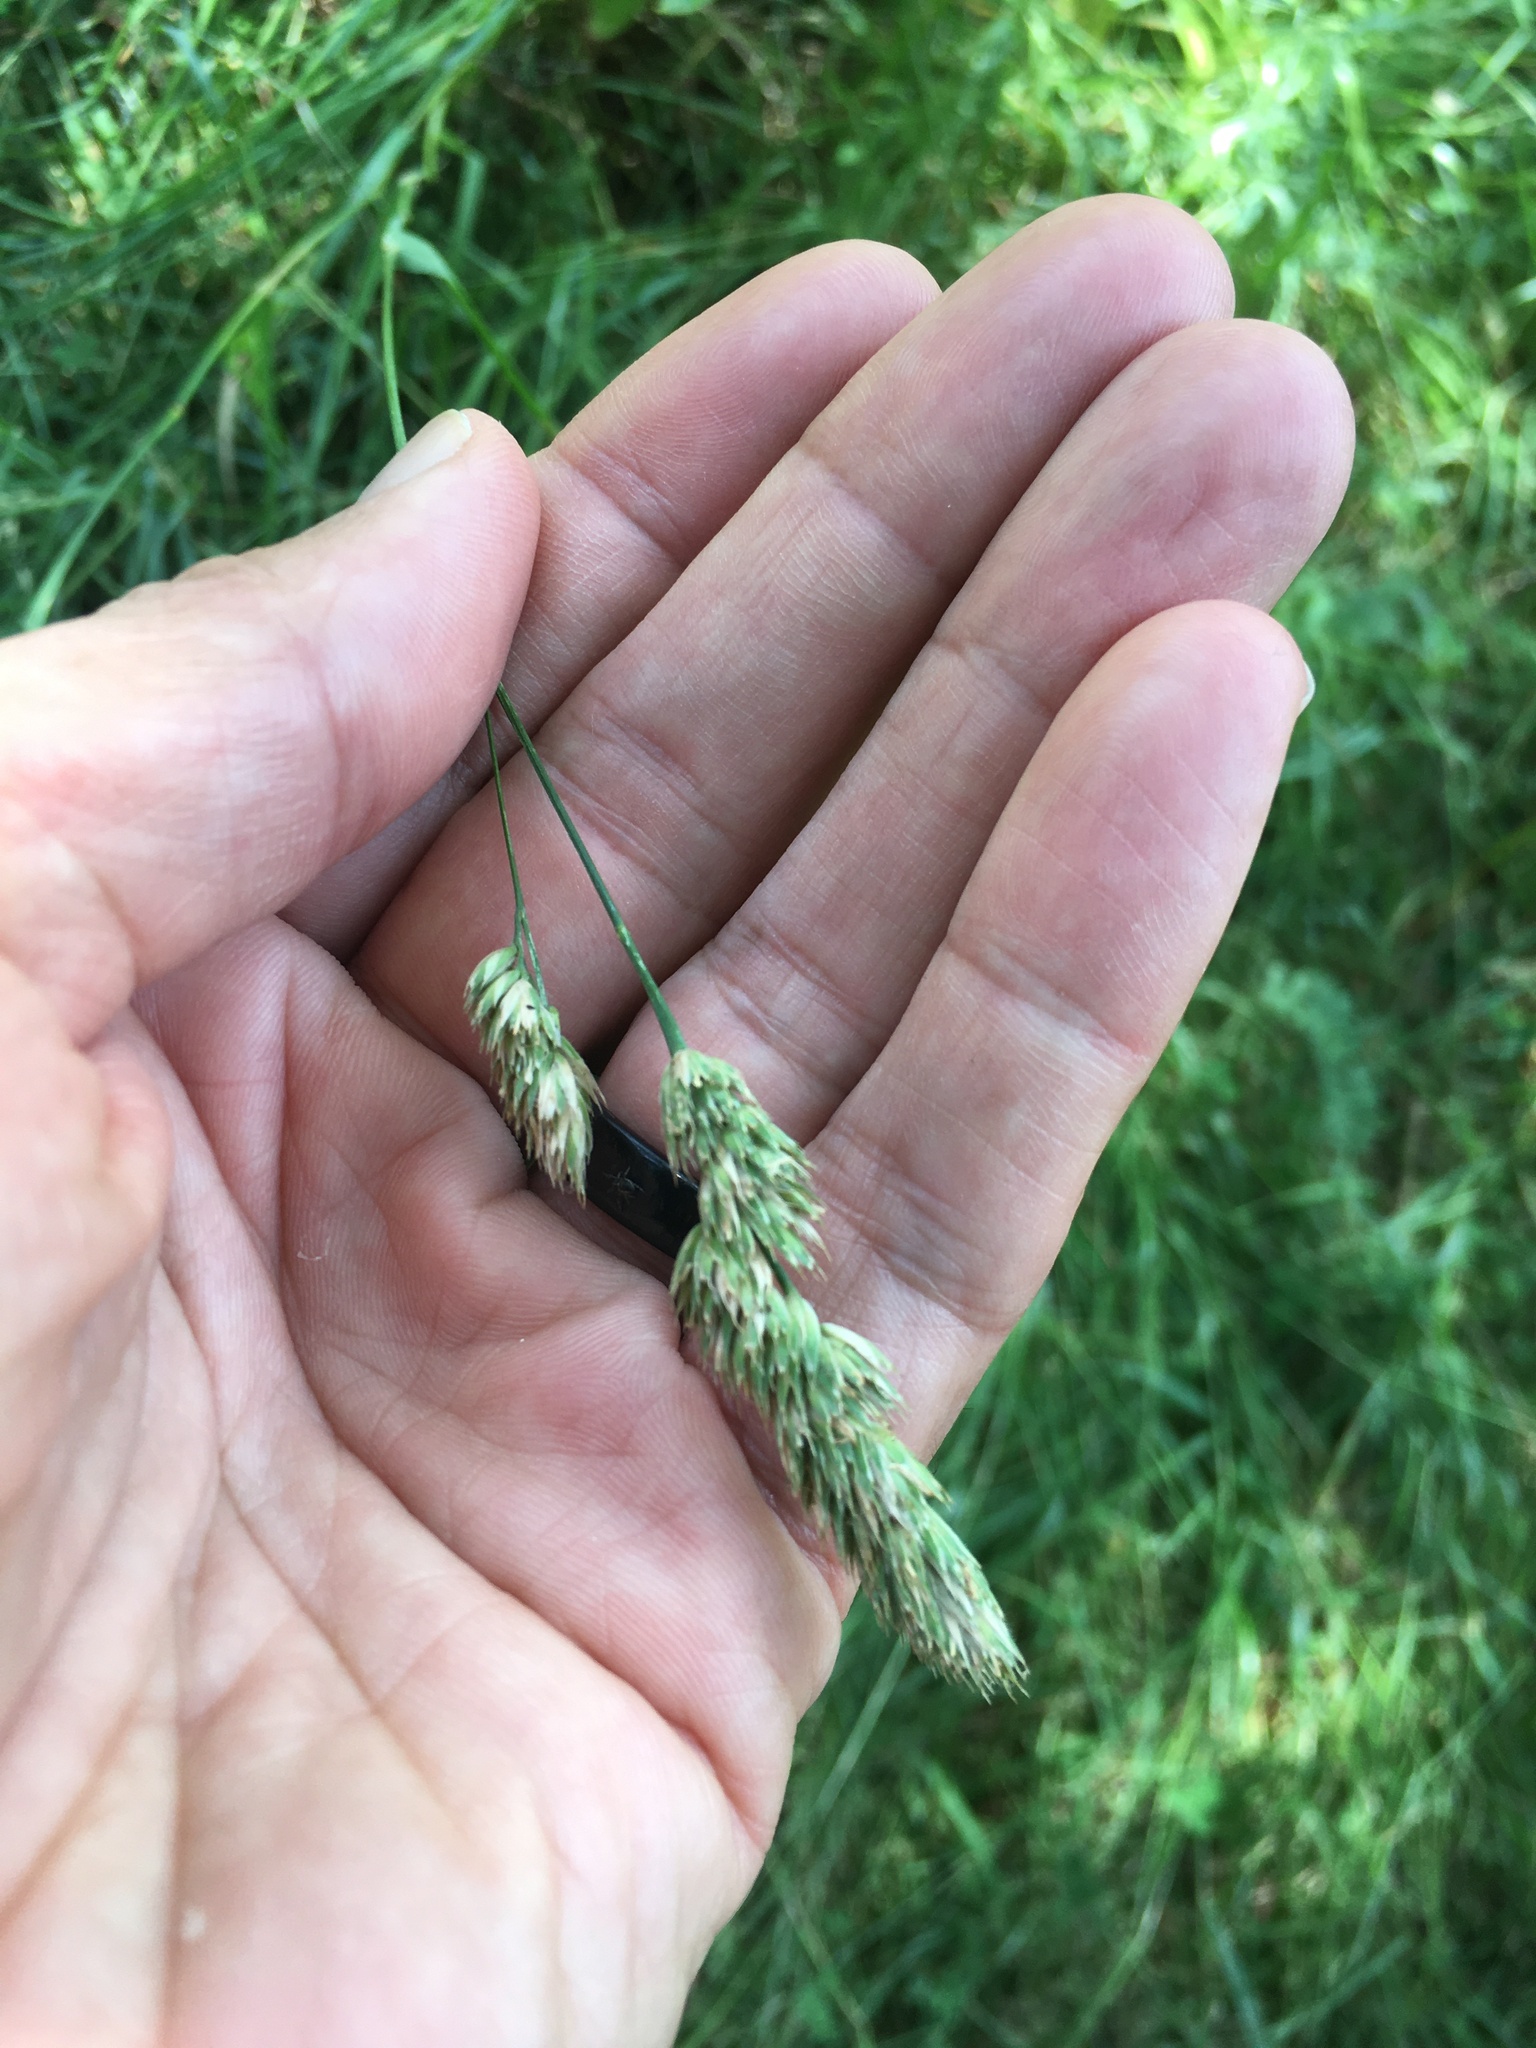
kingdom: Plantae
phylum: Tracheophyta
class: Liliopsida
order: Poales
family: Poaceae
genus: Dactylis
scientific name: Dactylis glomerata
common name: Orchardgrass
